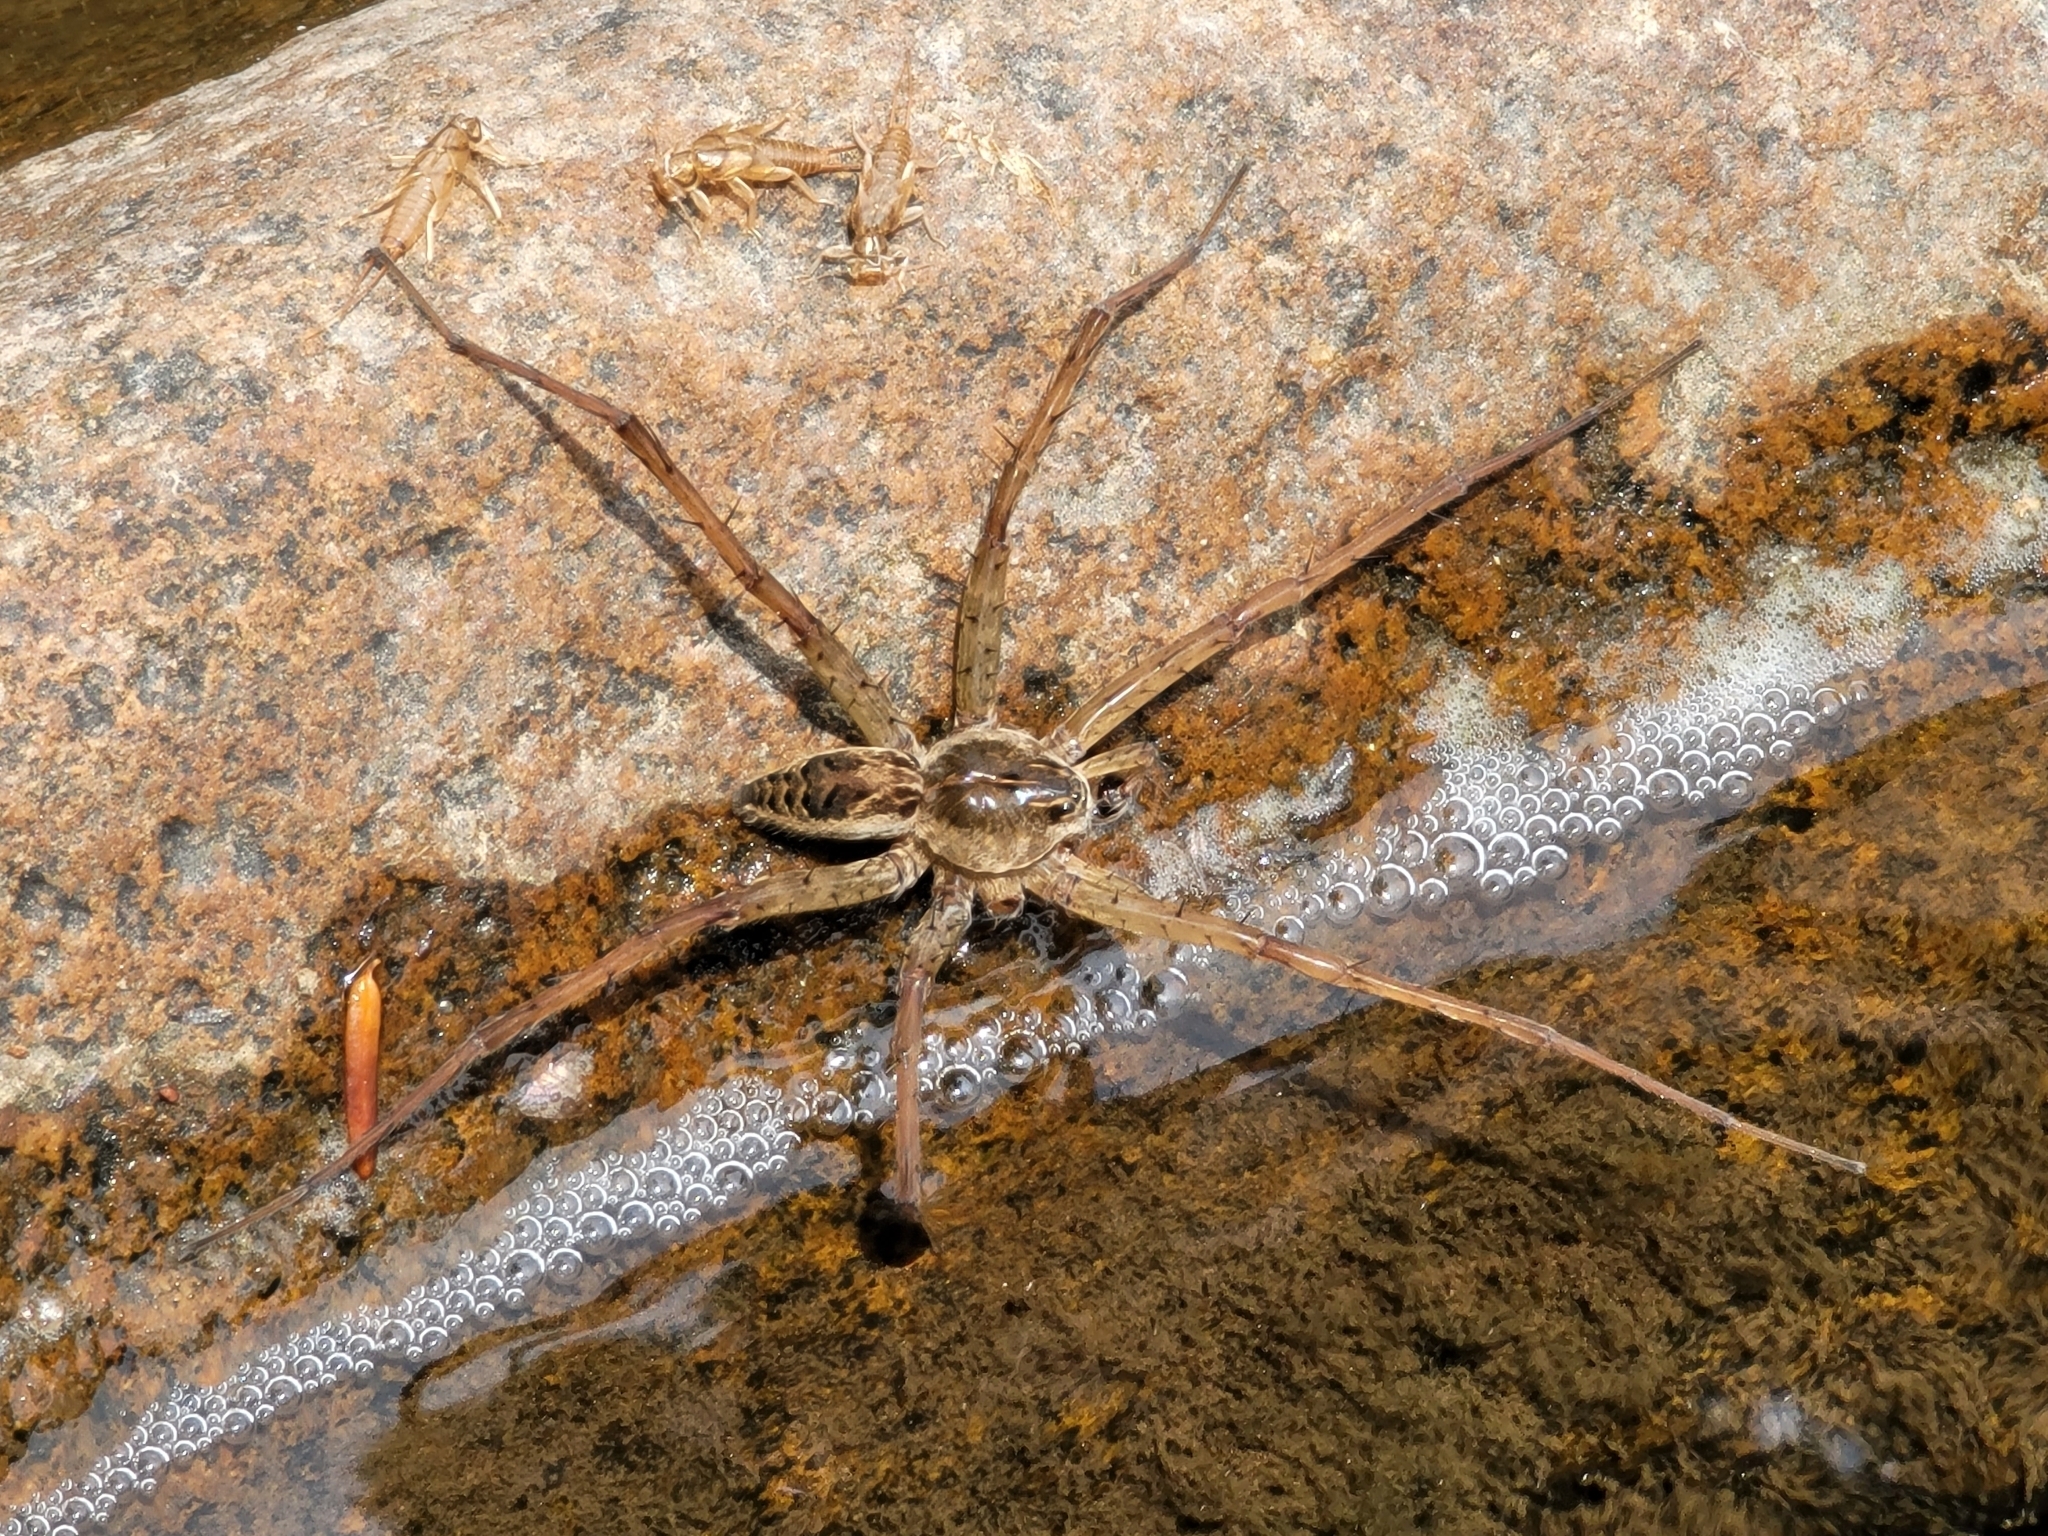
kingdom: Animalia
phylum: Arthropoda
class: Arachnida
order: Araneae
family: Pisauridae
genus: Dolomedes
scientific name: Dolomedes scriptus
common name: Striped fishing spider
